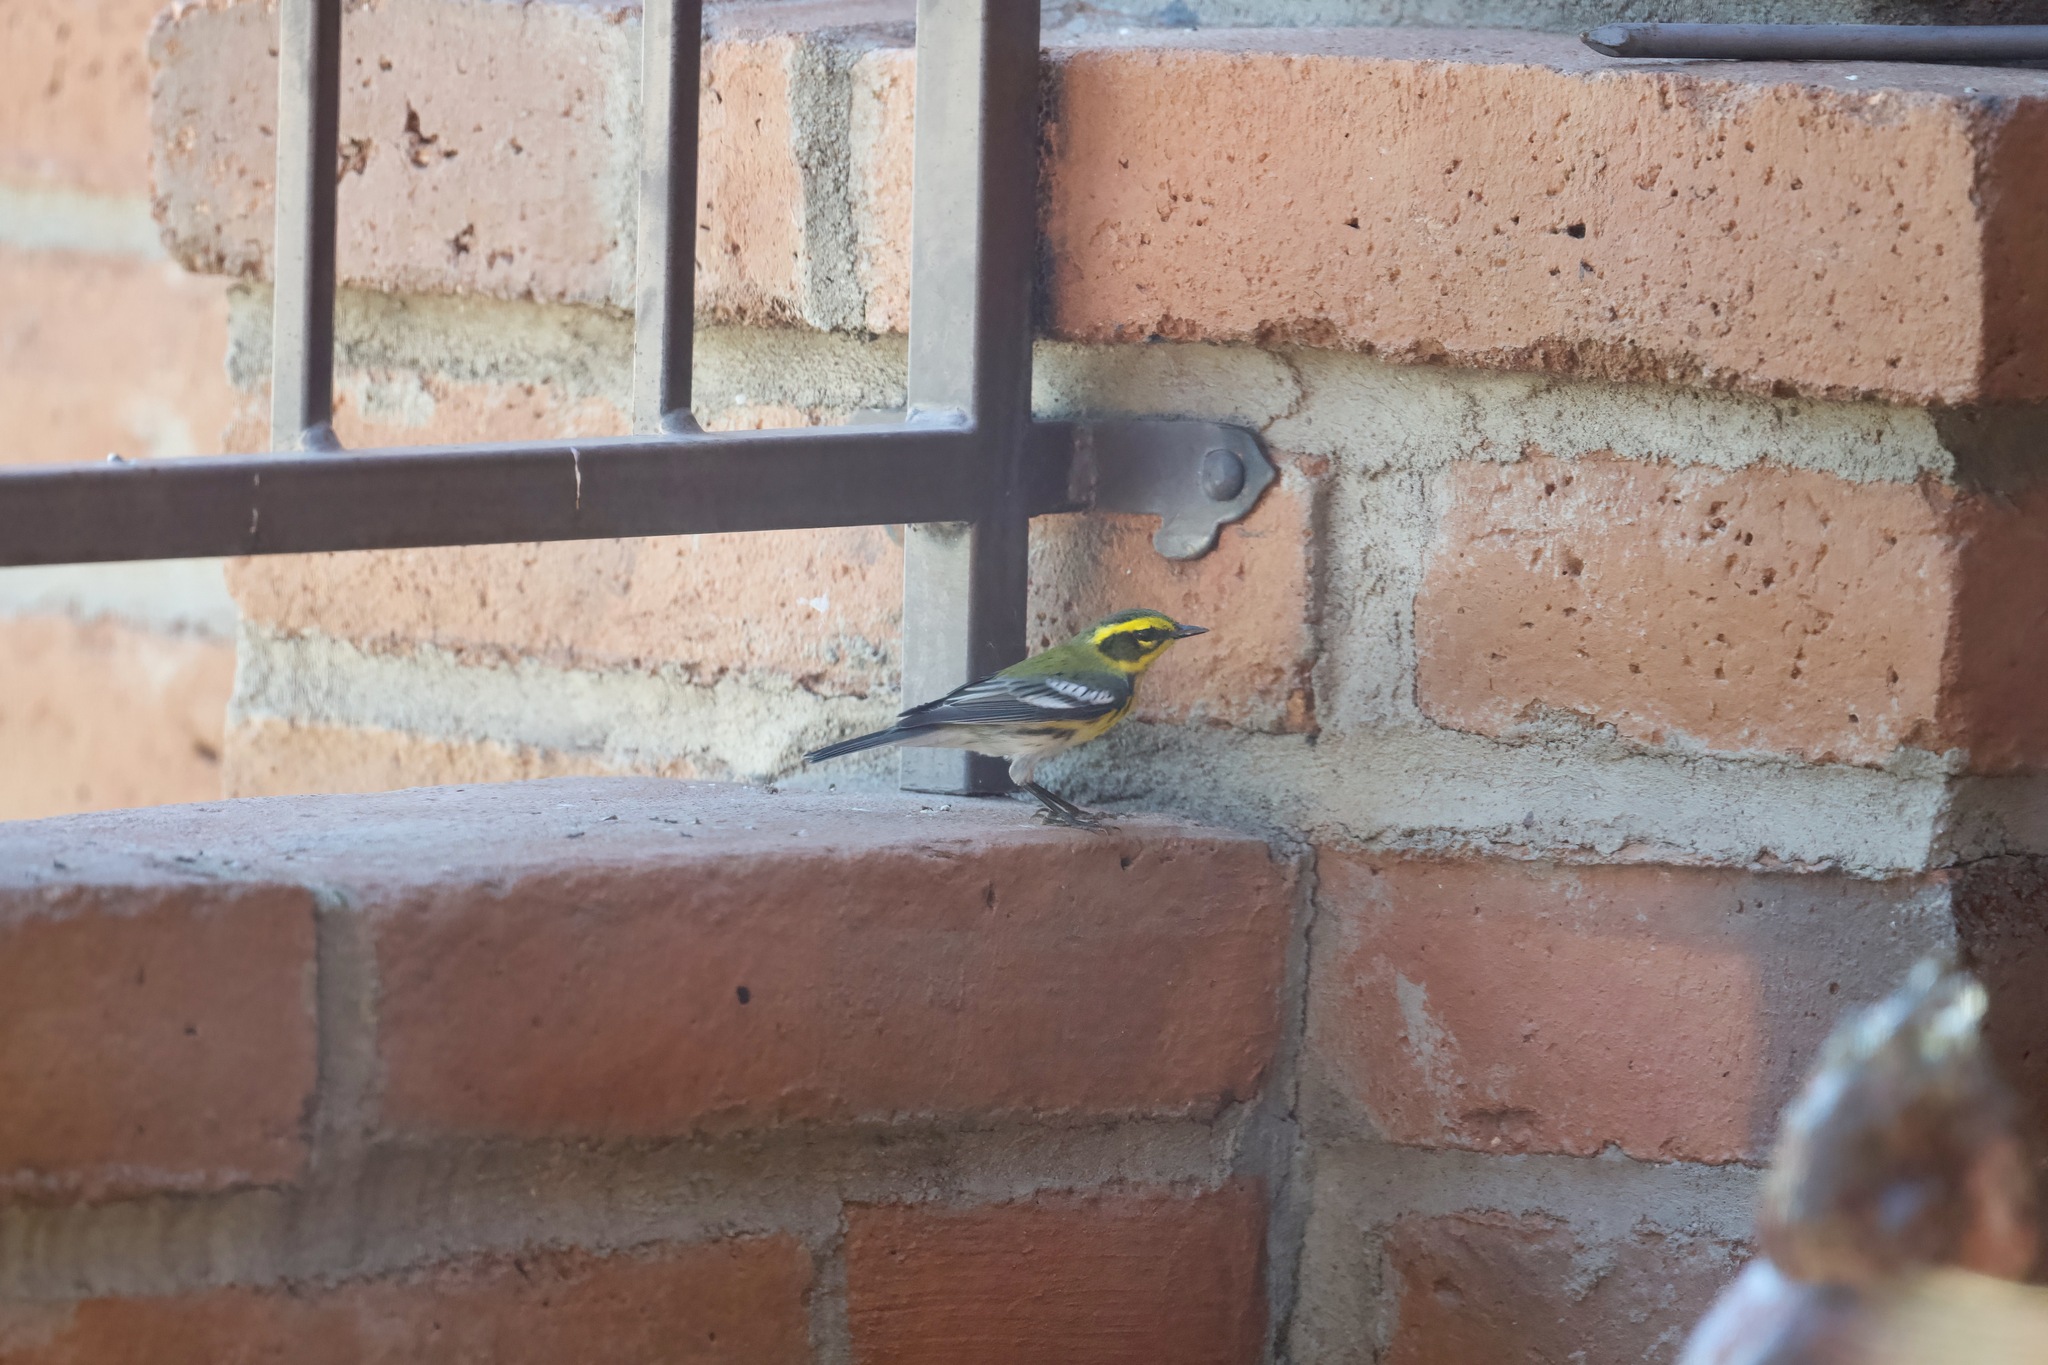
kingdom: Animalia
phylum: Chordata
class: Aves
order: Passeriformes
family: Parulidae
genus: Setophaga
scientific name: Setophaga townsendi
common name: Townsend's warbler
